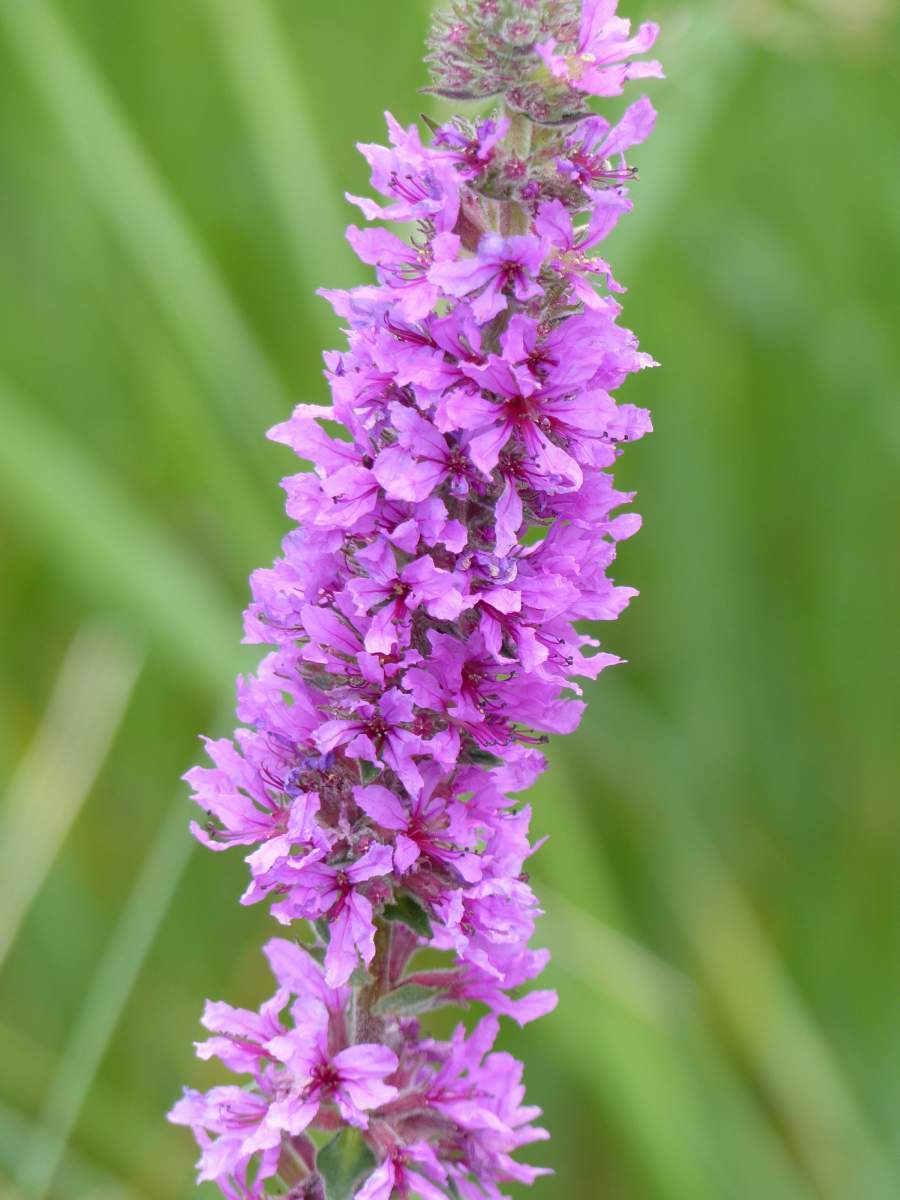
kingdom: Plantae
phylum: Tracheophyta
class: Magnoliopsida
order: Myrtales
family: Lythraceae
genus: Lythrum
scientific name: Lythrum salicaria
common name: Purple loosestrife
